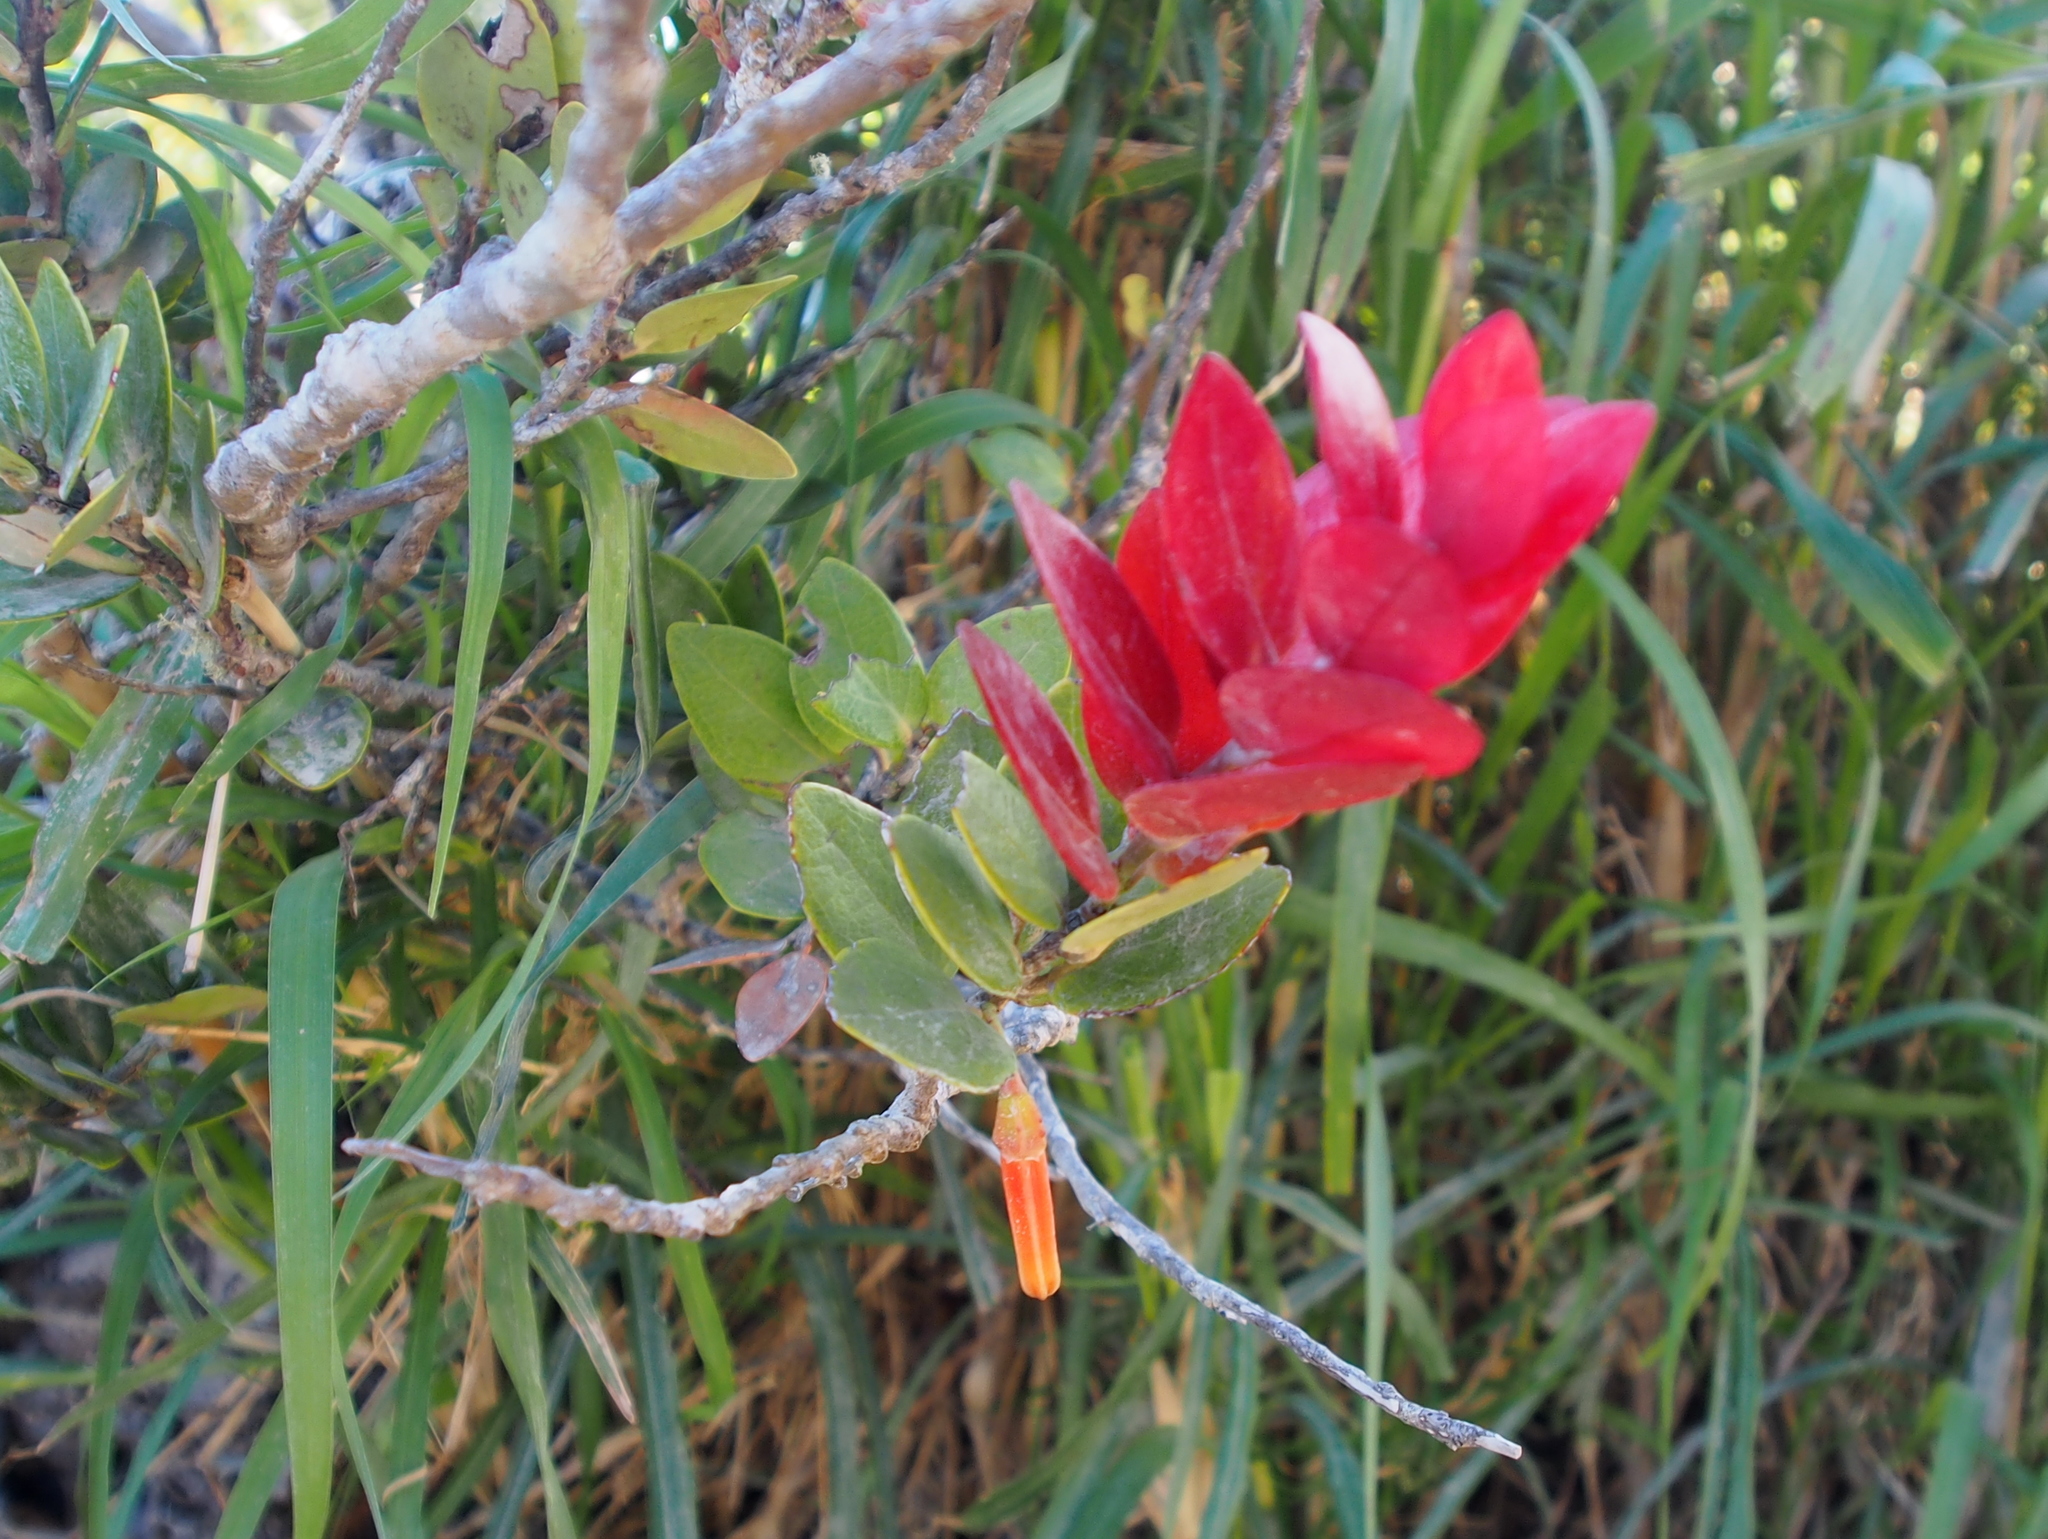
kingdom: Plantae
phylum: Tracheophyta
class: Magnoliopsida
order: Ericales
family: Ericaceae
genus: Macleania
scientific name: Macleania insignis
